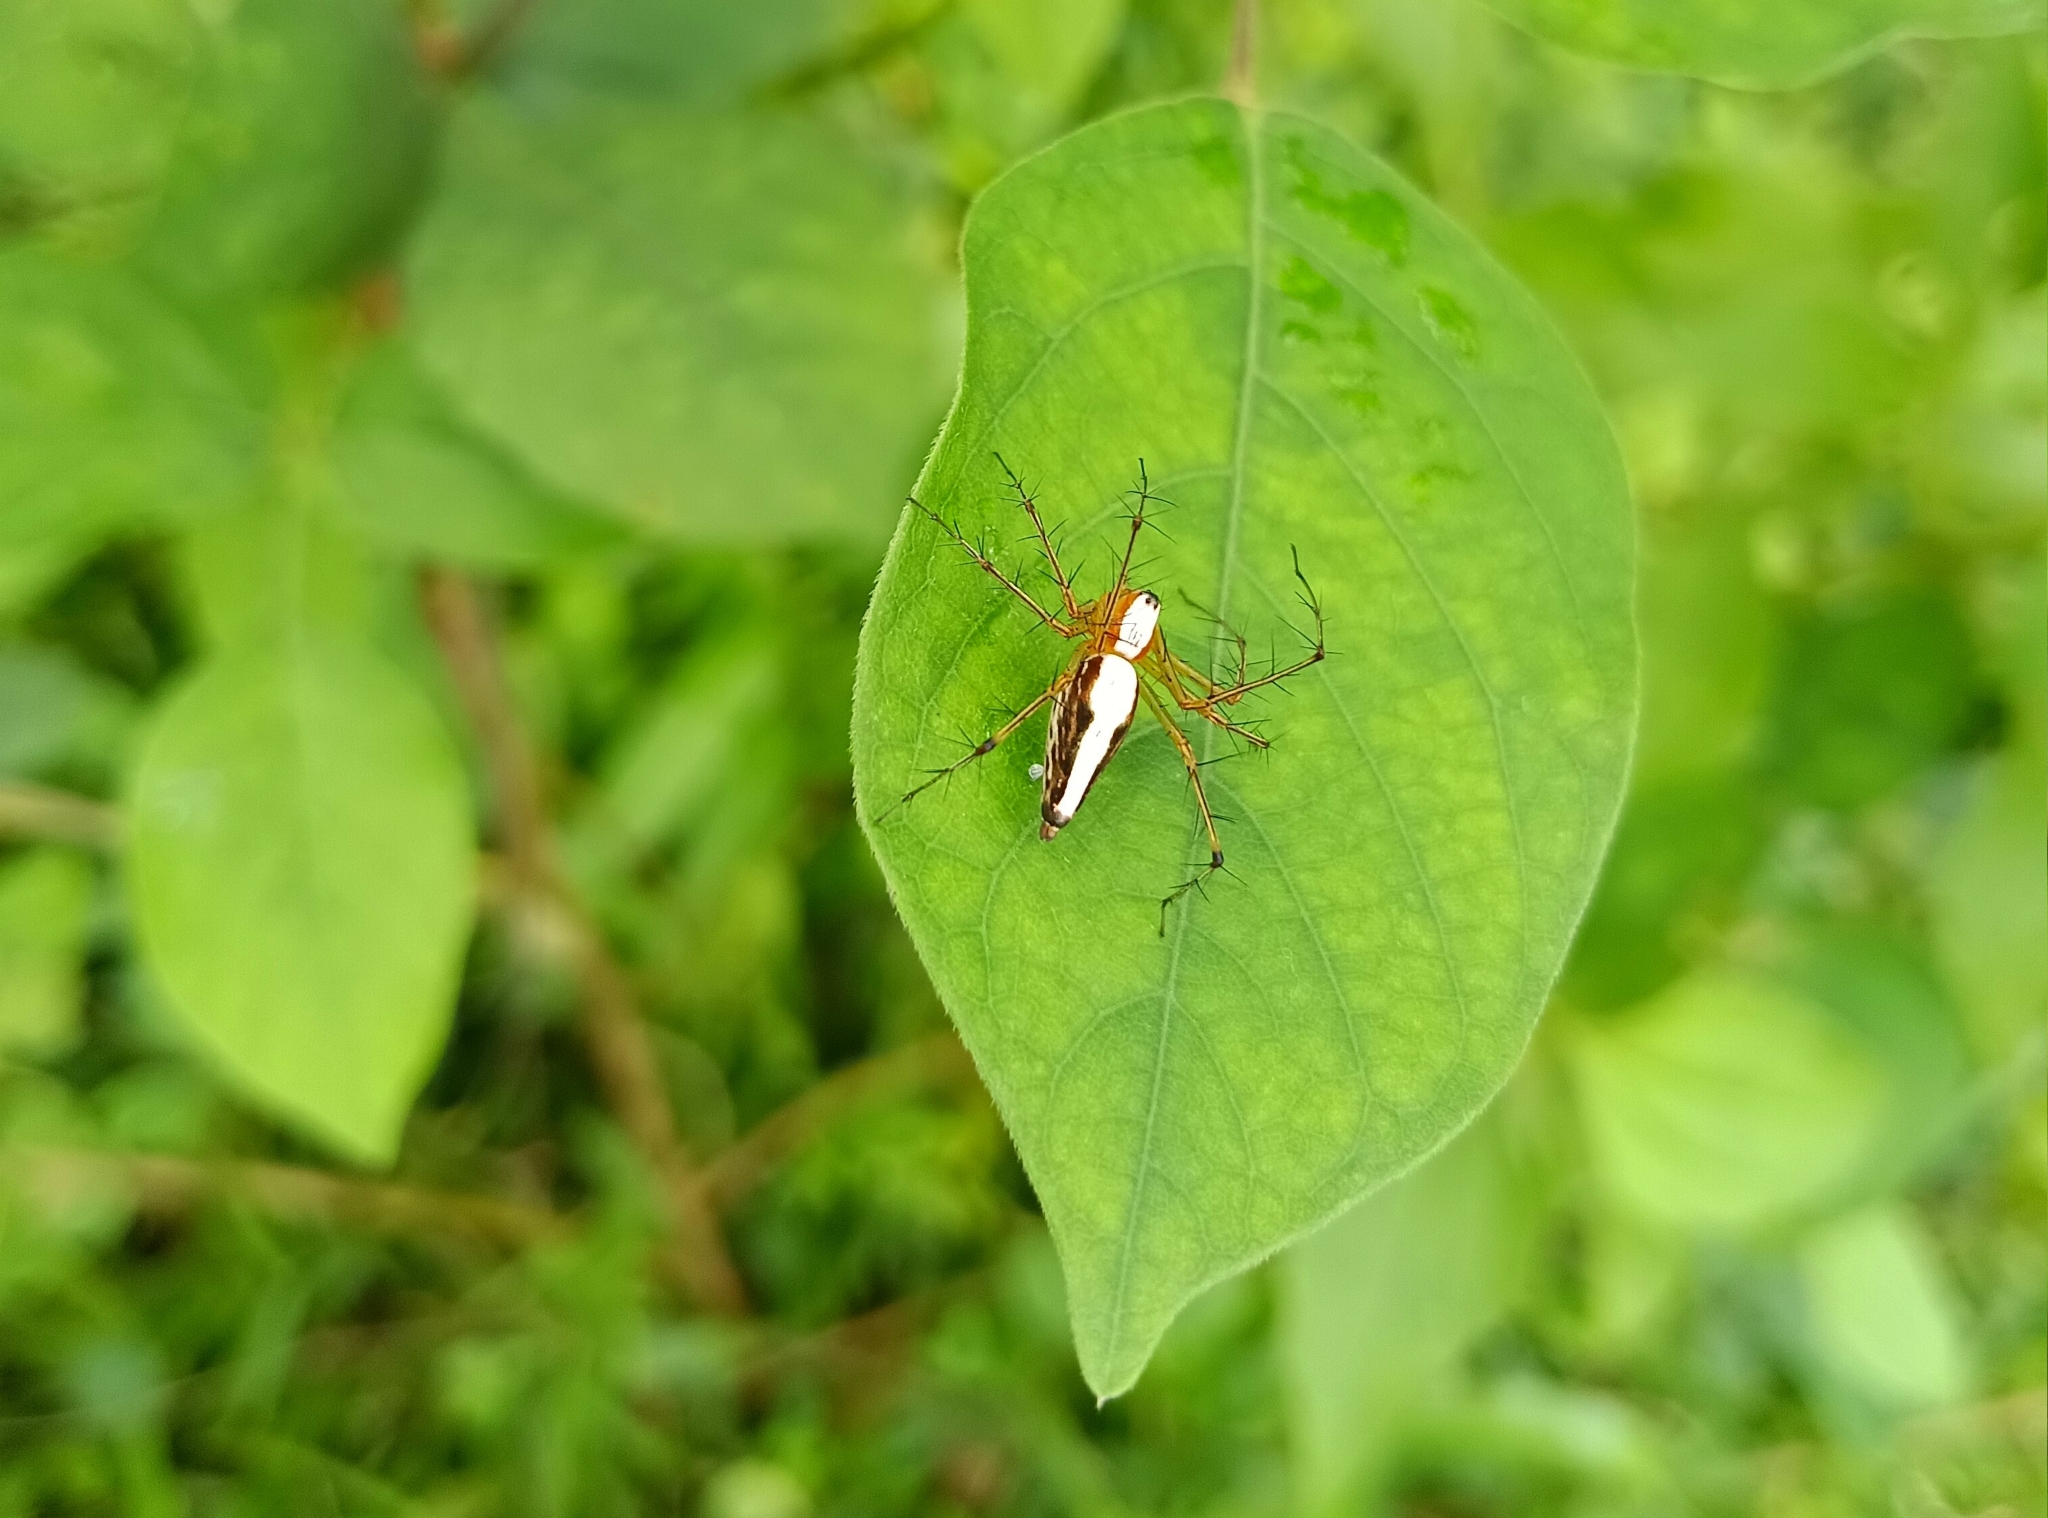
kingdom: Animalia
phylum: Arthropoda
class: Arachnida
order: Araneae
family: Oxyopidae
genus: Oxyopes
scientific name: Oxyopes shweta
